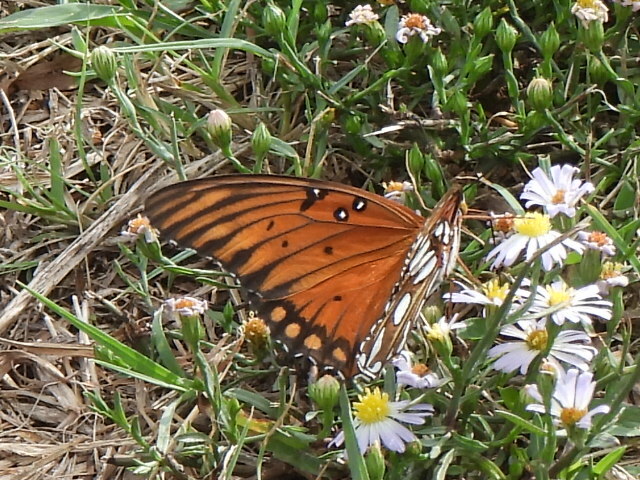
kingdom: Animalia
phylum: Arthropoda
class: Insecta
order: Lepidoptera
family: Nymphalidae
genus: Dione
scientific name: Dione vanillae
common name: Gulf fritillary
